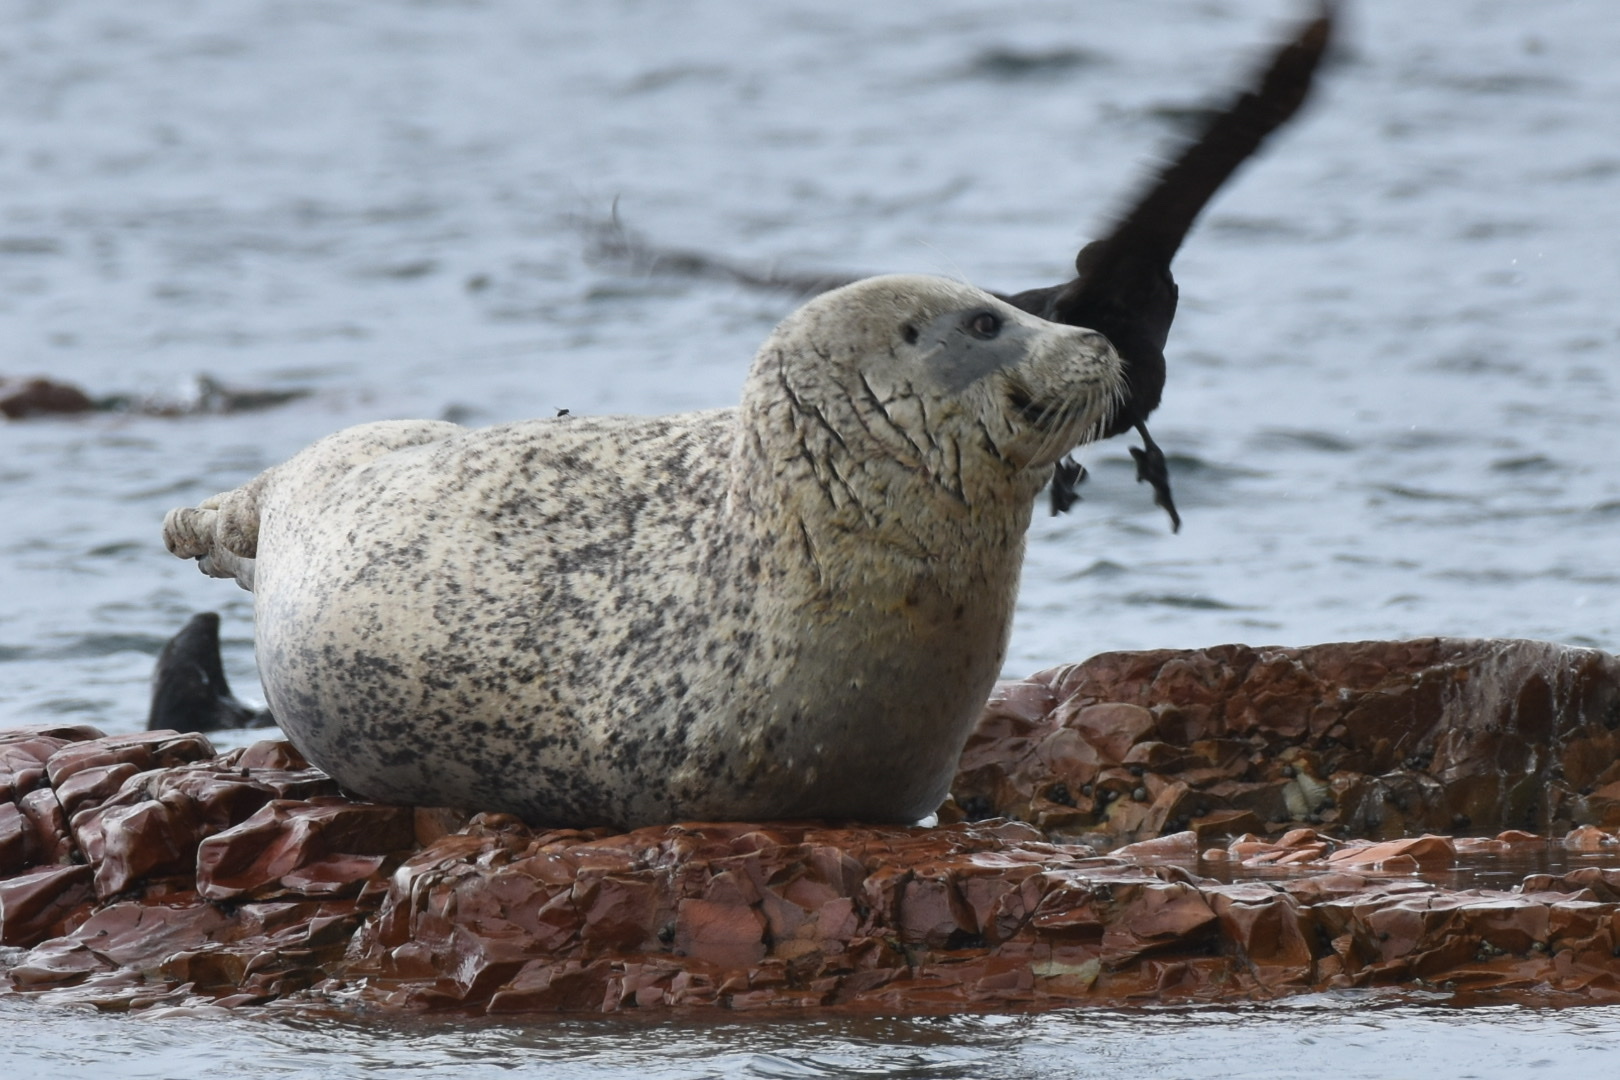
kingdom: Animalia
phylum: Chordata
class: Mammalia
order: Carnivora
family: Phocidae
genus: Phoca
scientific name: Phoca vitulina
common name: Harbor seal
